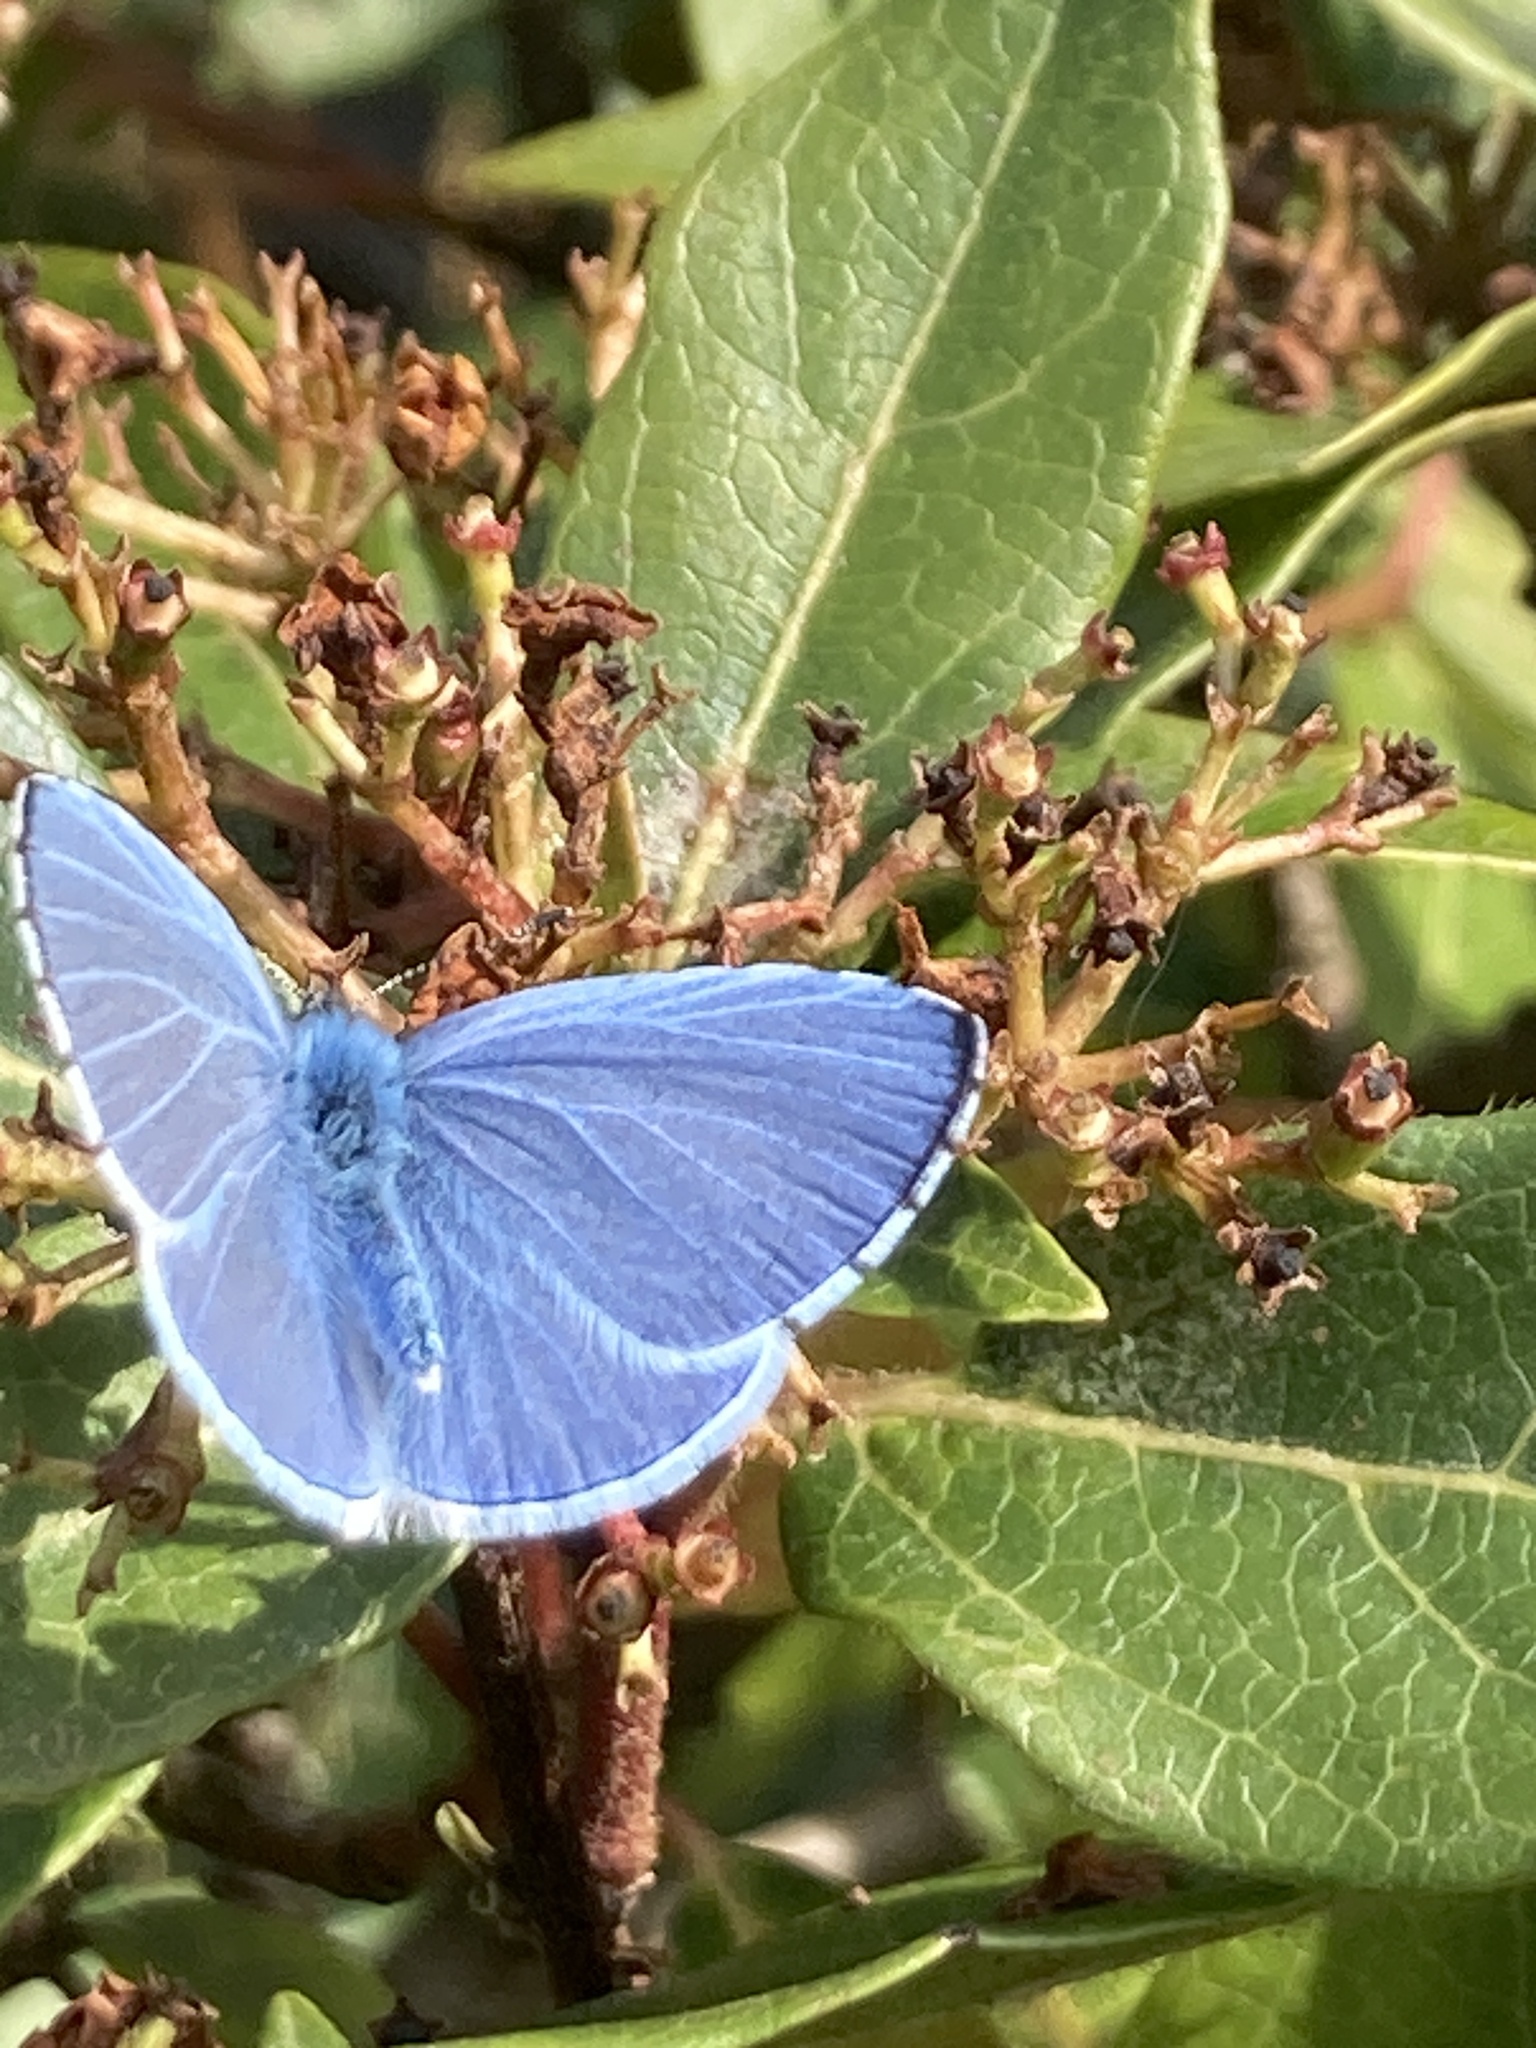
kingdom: Animalia
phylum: Arthropoda
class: Insecta
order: Lepidoptera
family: Lycaenidae
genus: Celastrina
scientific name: Celastrina argiolus
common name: Holly blue
